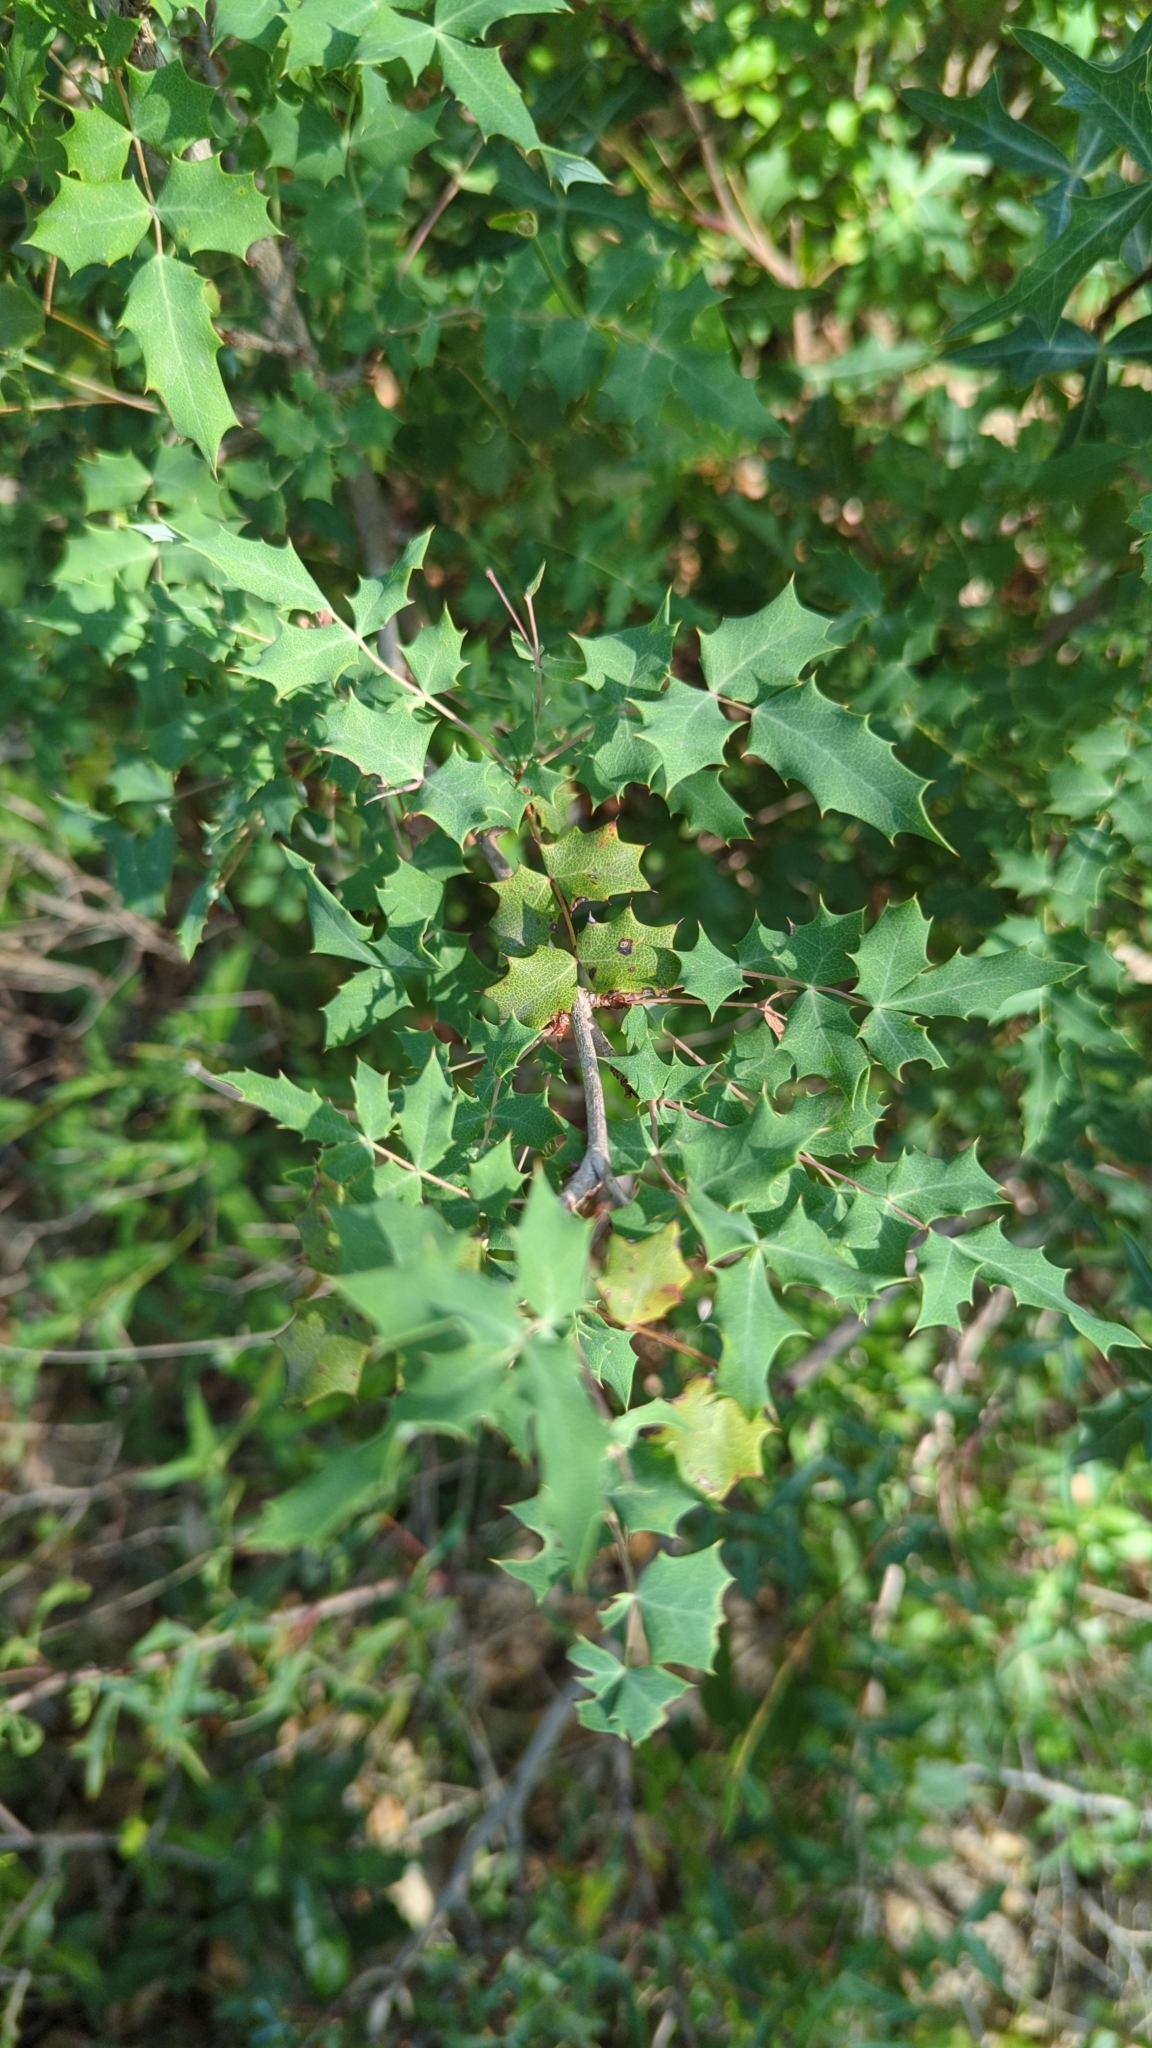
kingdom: Plantae
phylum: Tracheophyta
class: Magnoliopsida
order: Ranunculales
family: Berberidaceae
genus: Berberis
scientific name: Berberis swaseyi
